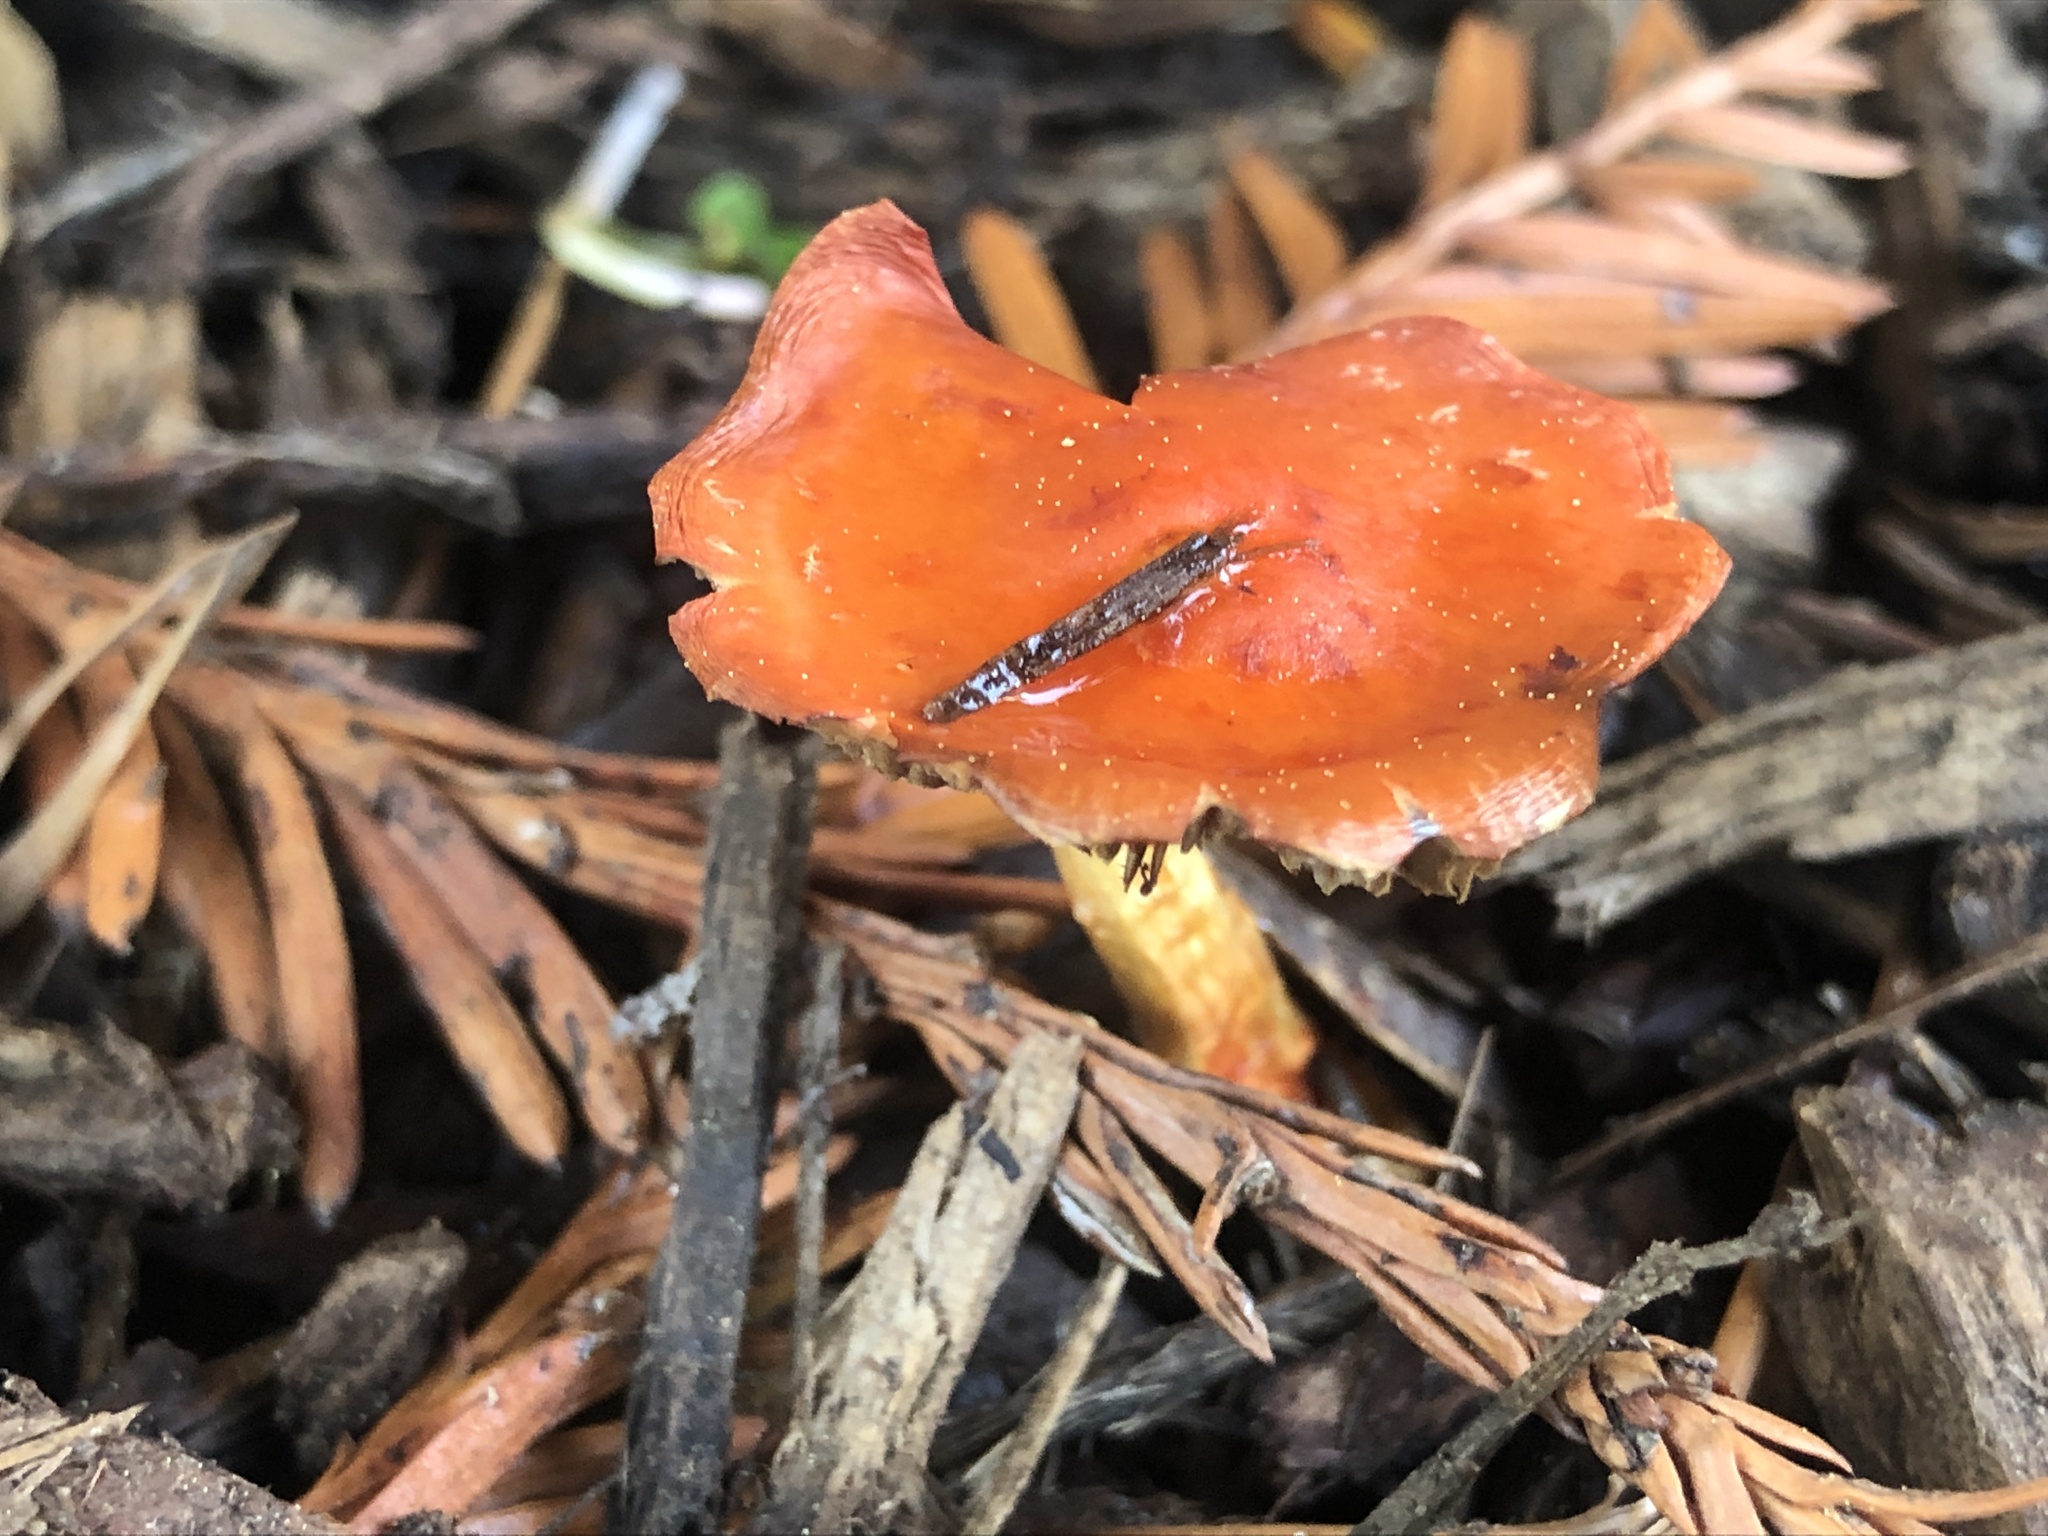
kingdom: Fungi
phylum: Basidiomycota
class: Agaricomycetes
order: Agaricales
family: Strophariaceae
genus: Leratiomyces
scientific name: Leratiomyces ceres
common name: Redlead roundhead
